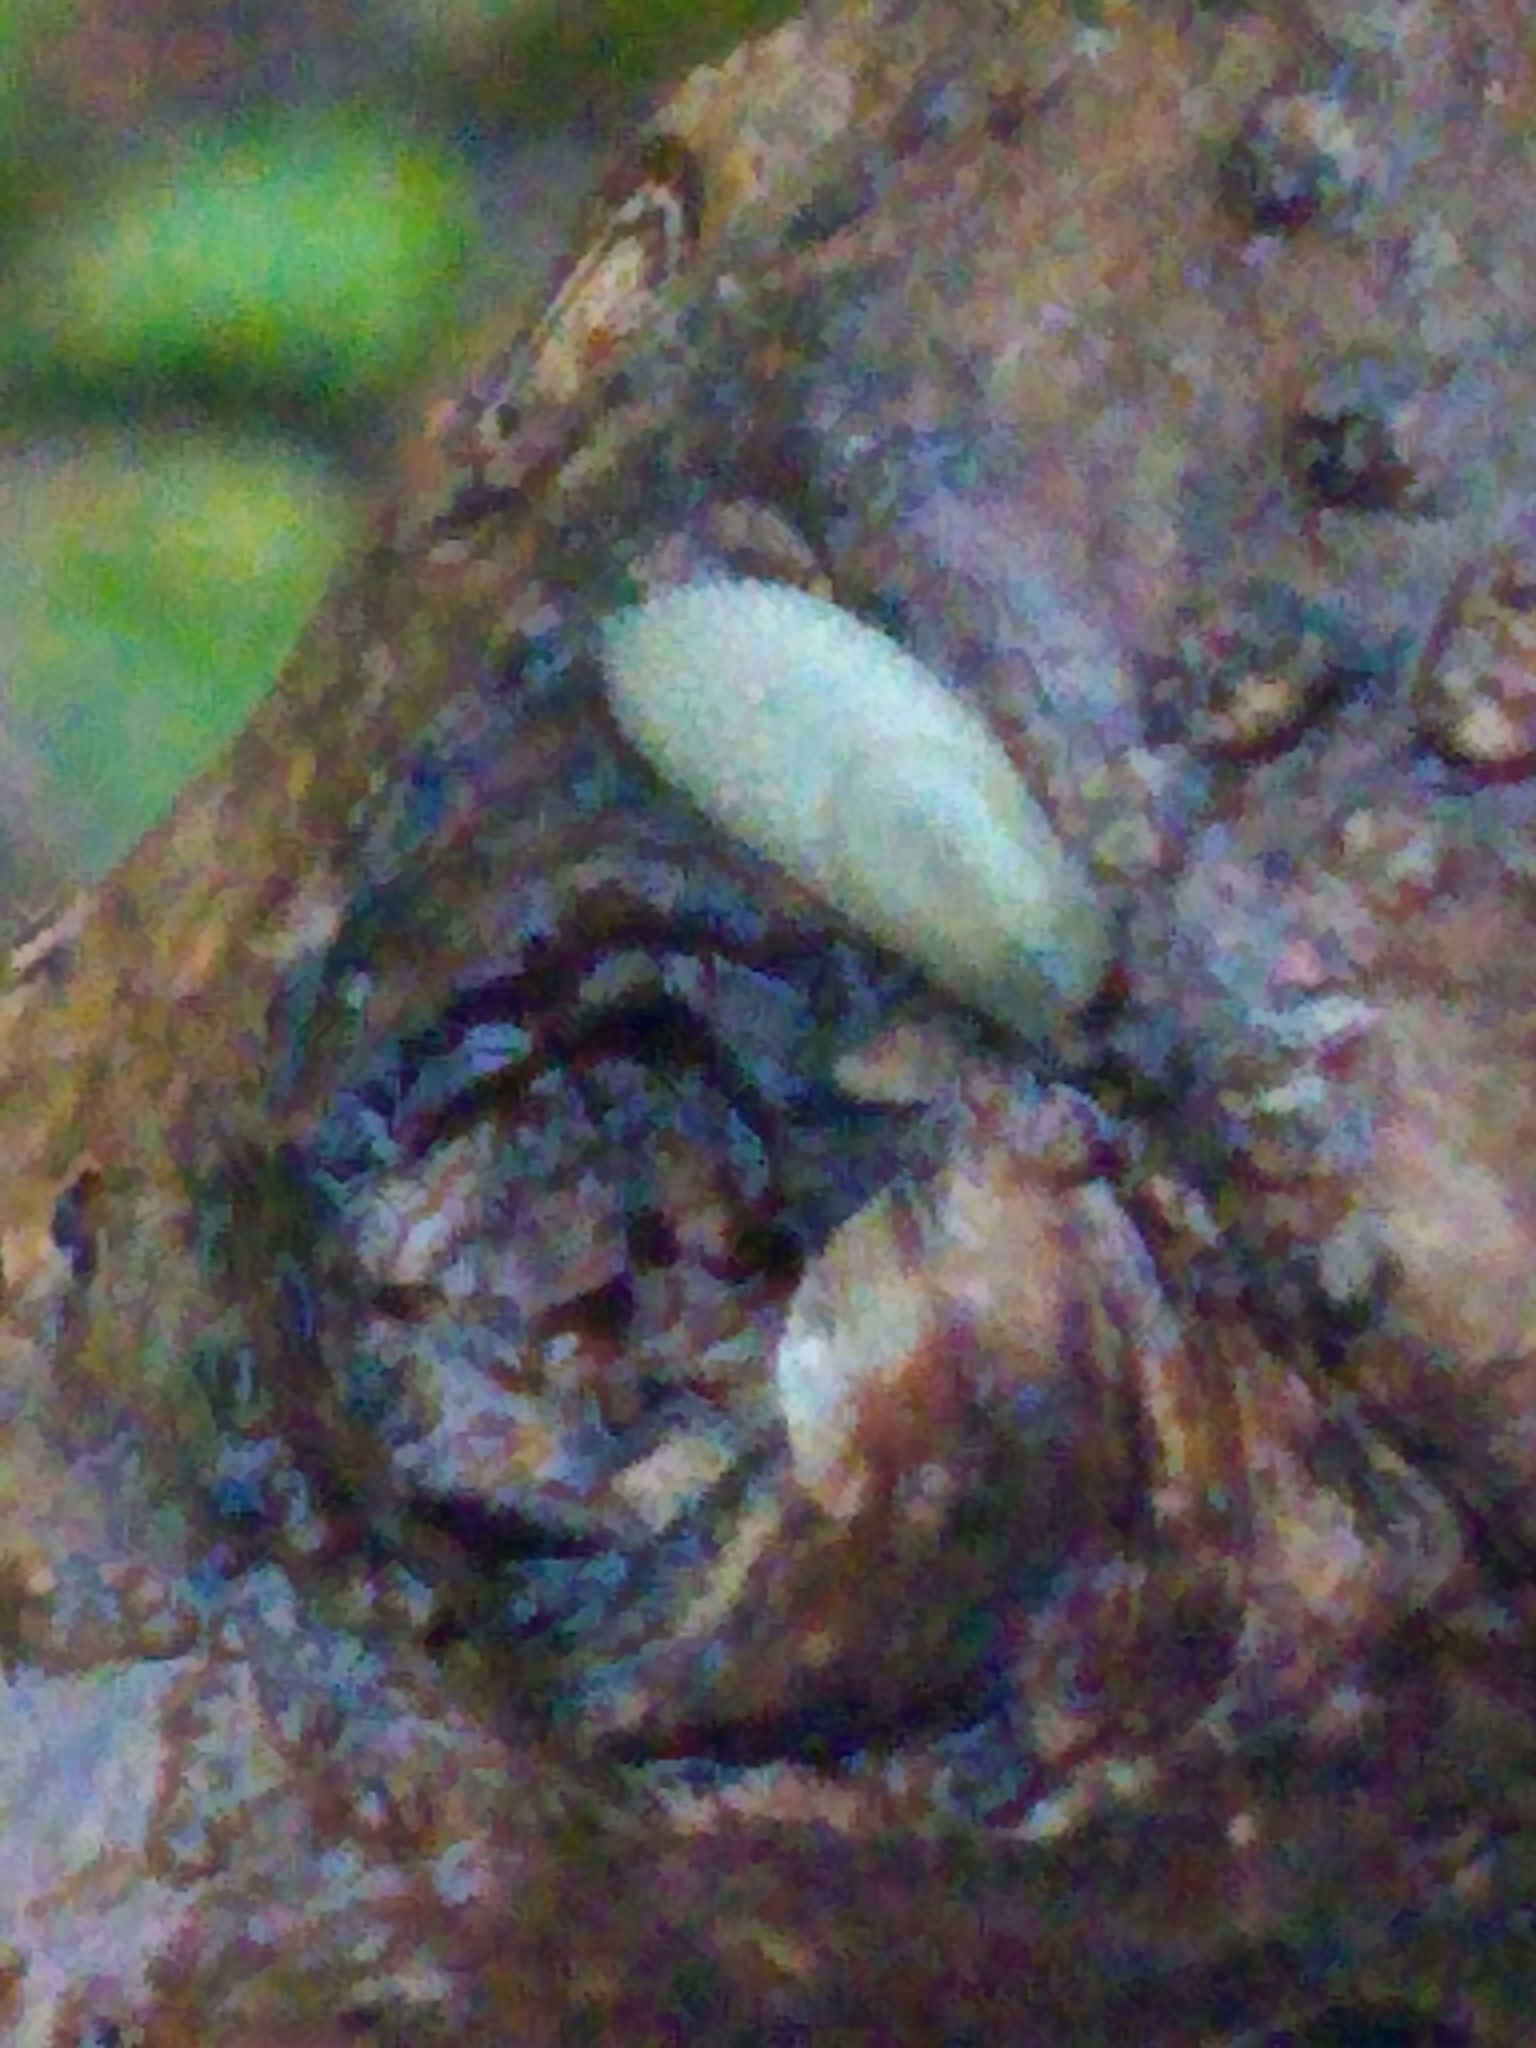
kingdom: Animalia
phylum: Mollusca
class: Gastropoda
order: Stylommatophora
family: Arionidae
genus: Arion
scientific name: Arion intermedius
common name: Hedgehog slug
